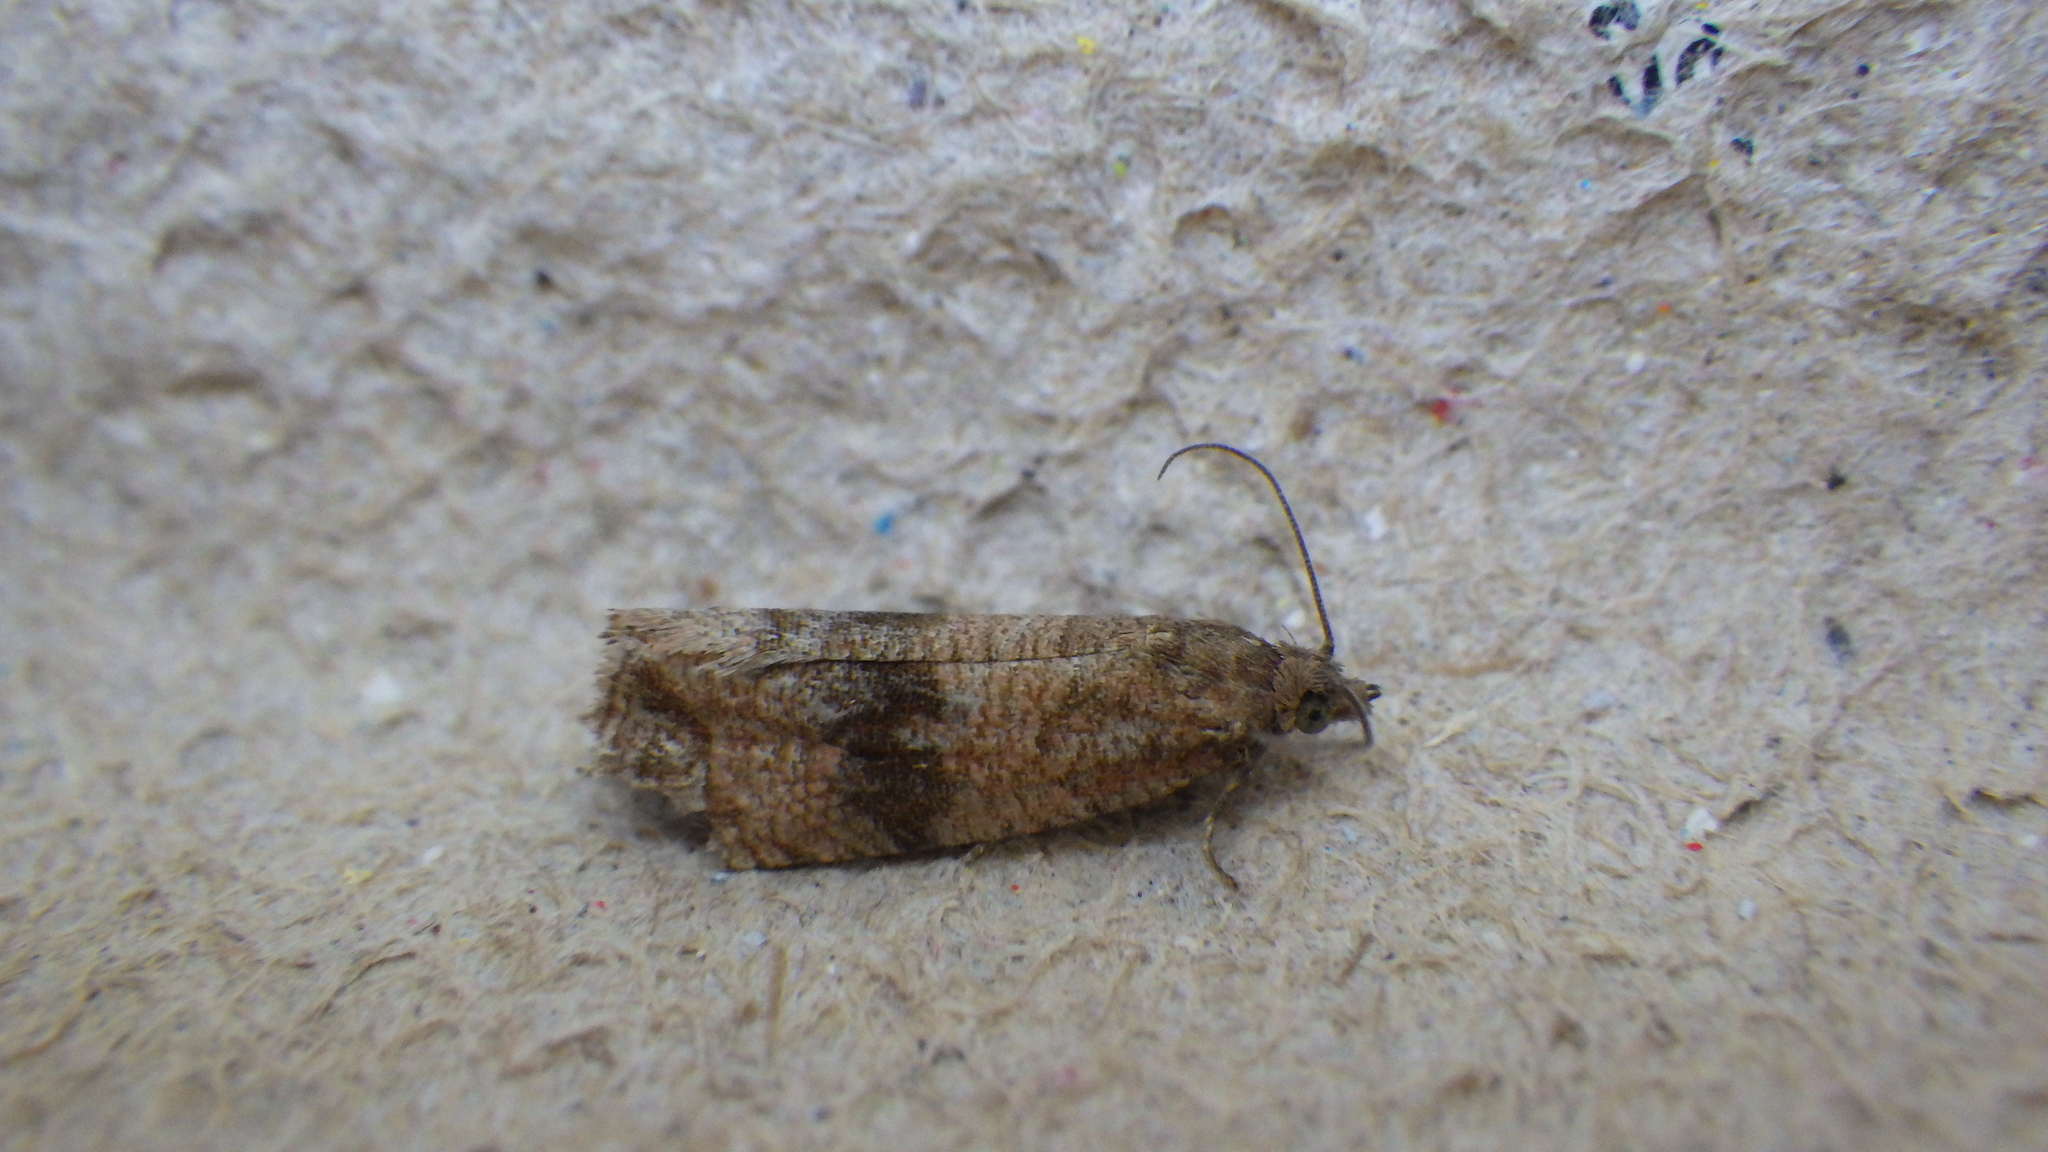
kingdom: Animalia
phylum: Arthropoda
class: Insecta
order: Lepidoptera
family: Tortricidae
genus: Celypha
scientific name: Celypha striana
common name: Barred marble
